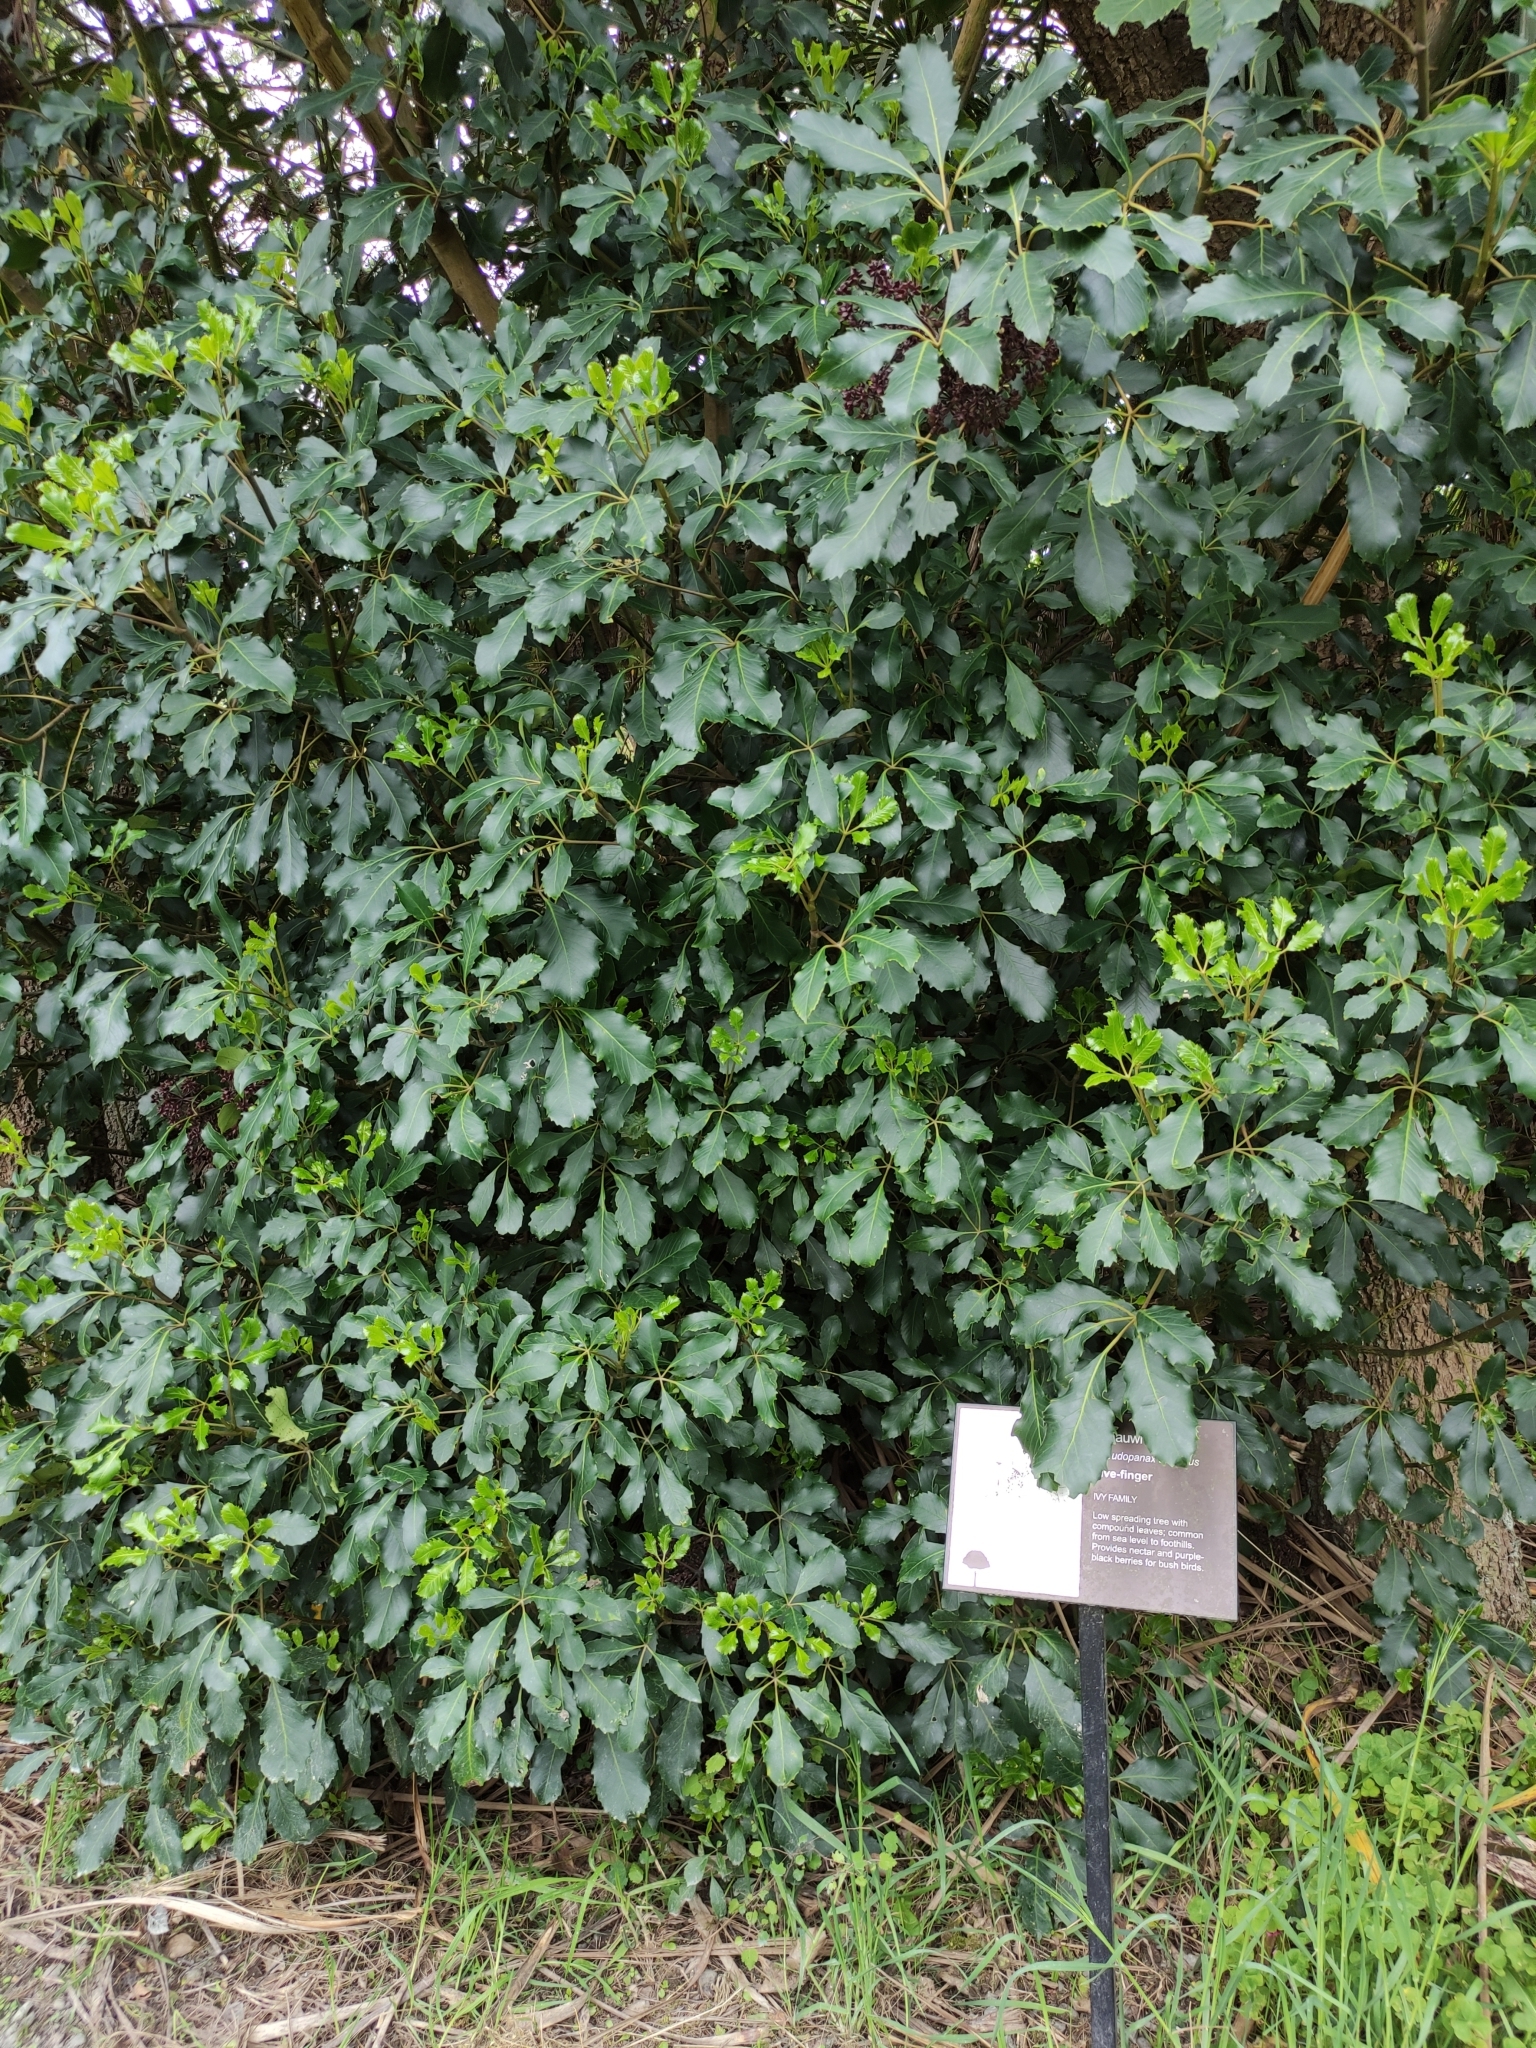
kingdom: Plantae
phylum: Tracheophyta
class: Magnoliopsida
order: Apiales
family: Araliaceae
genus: Neopanax
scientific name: Neopanax arboreus
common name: Five-fingers
